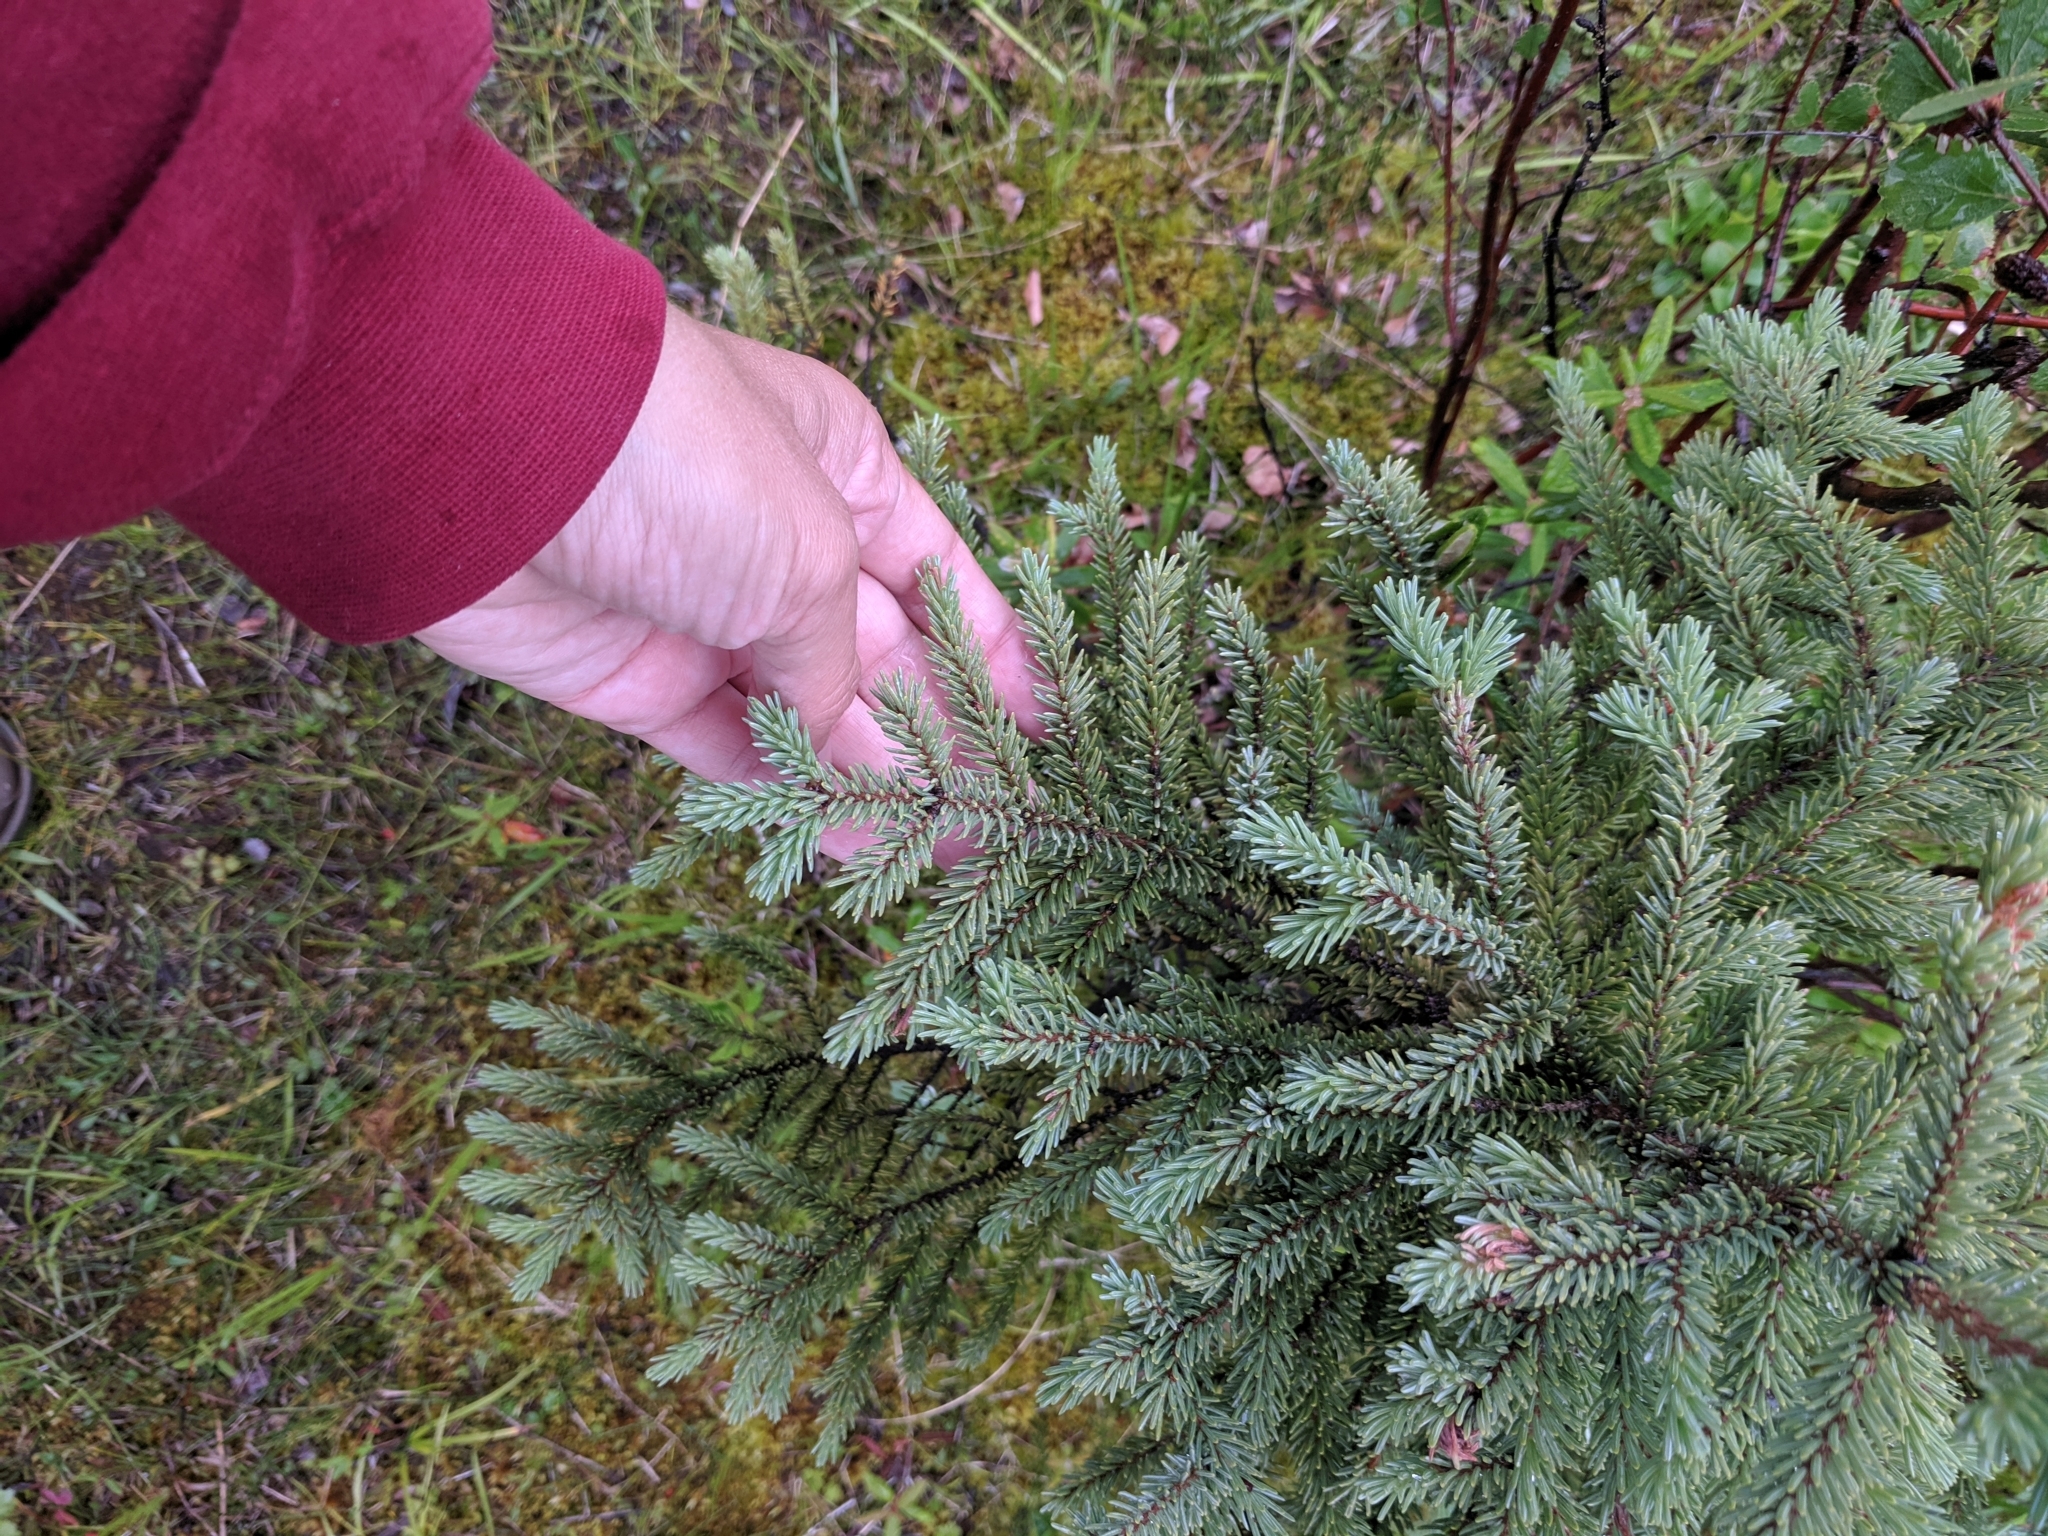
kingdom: Plantae
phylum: Tracheophyta
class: Pinopsida
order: Pinales
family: Pinaceae
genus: Picea
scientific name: Picea mariana
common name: Black spruce
